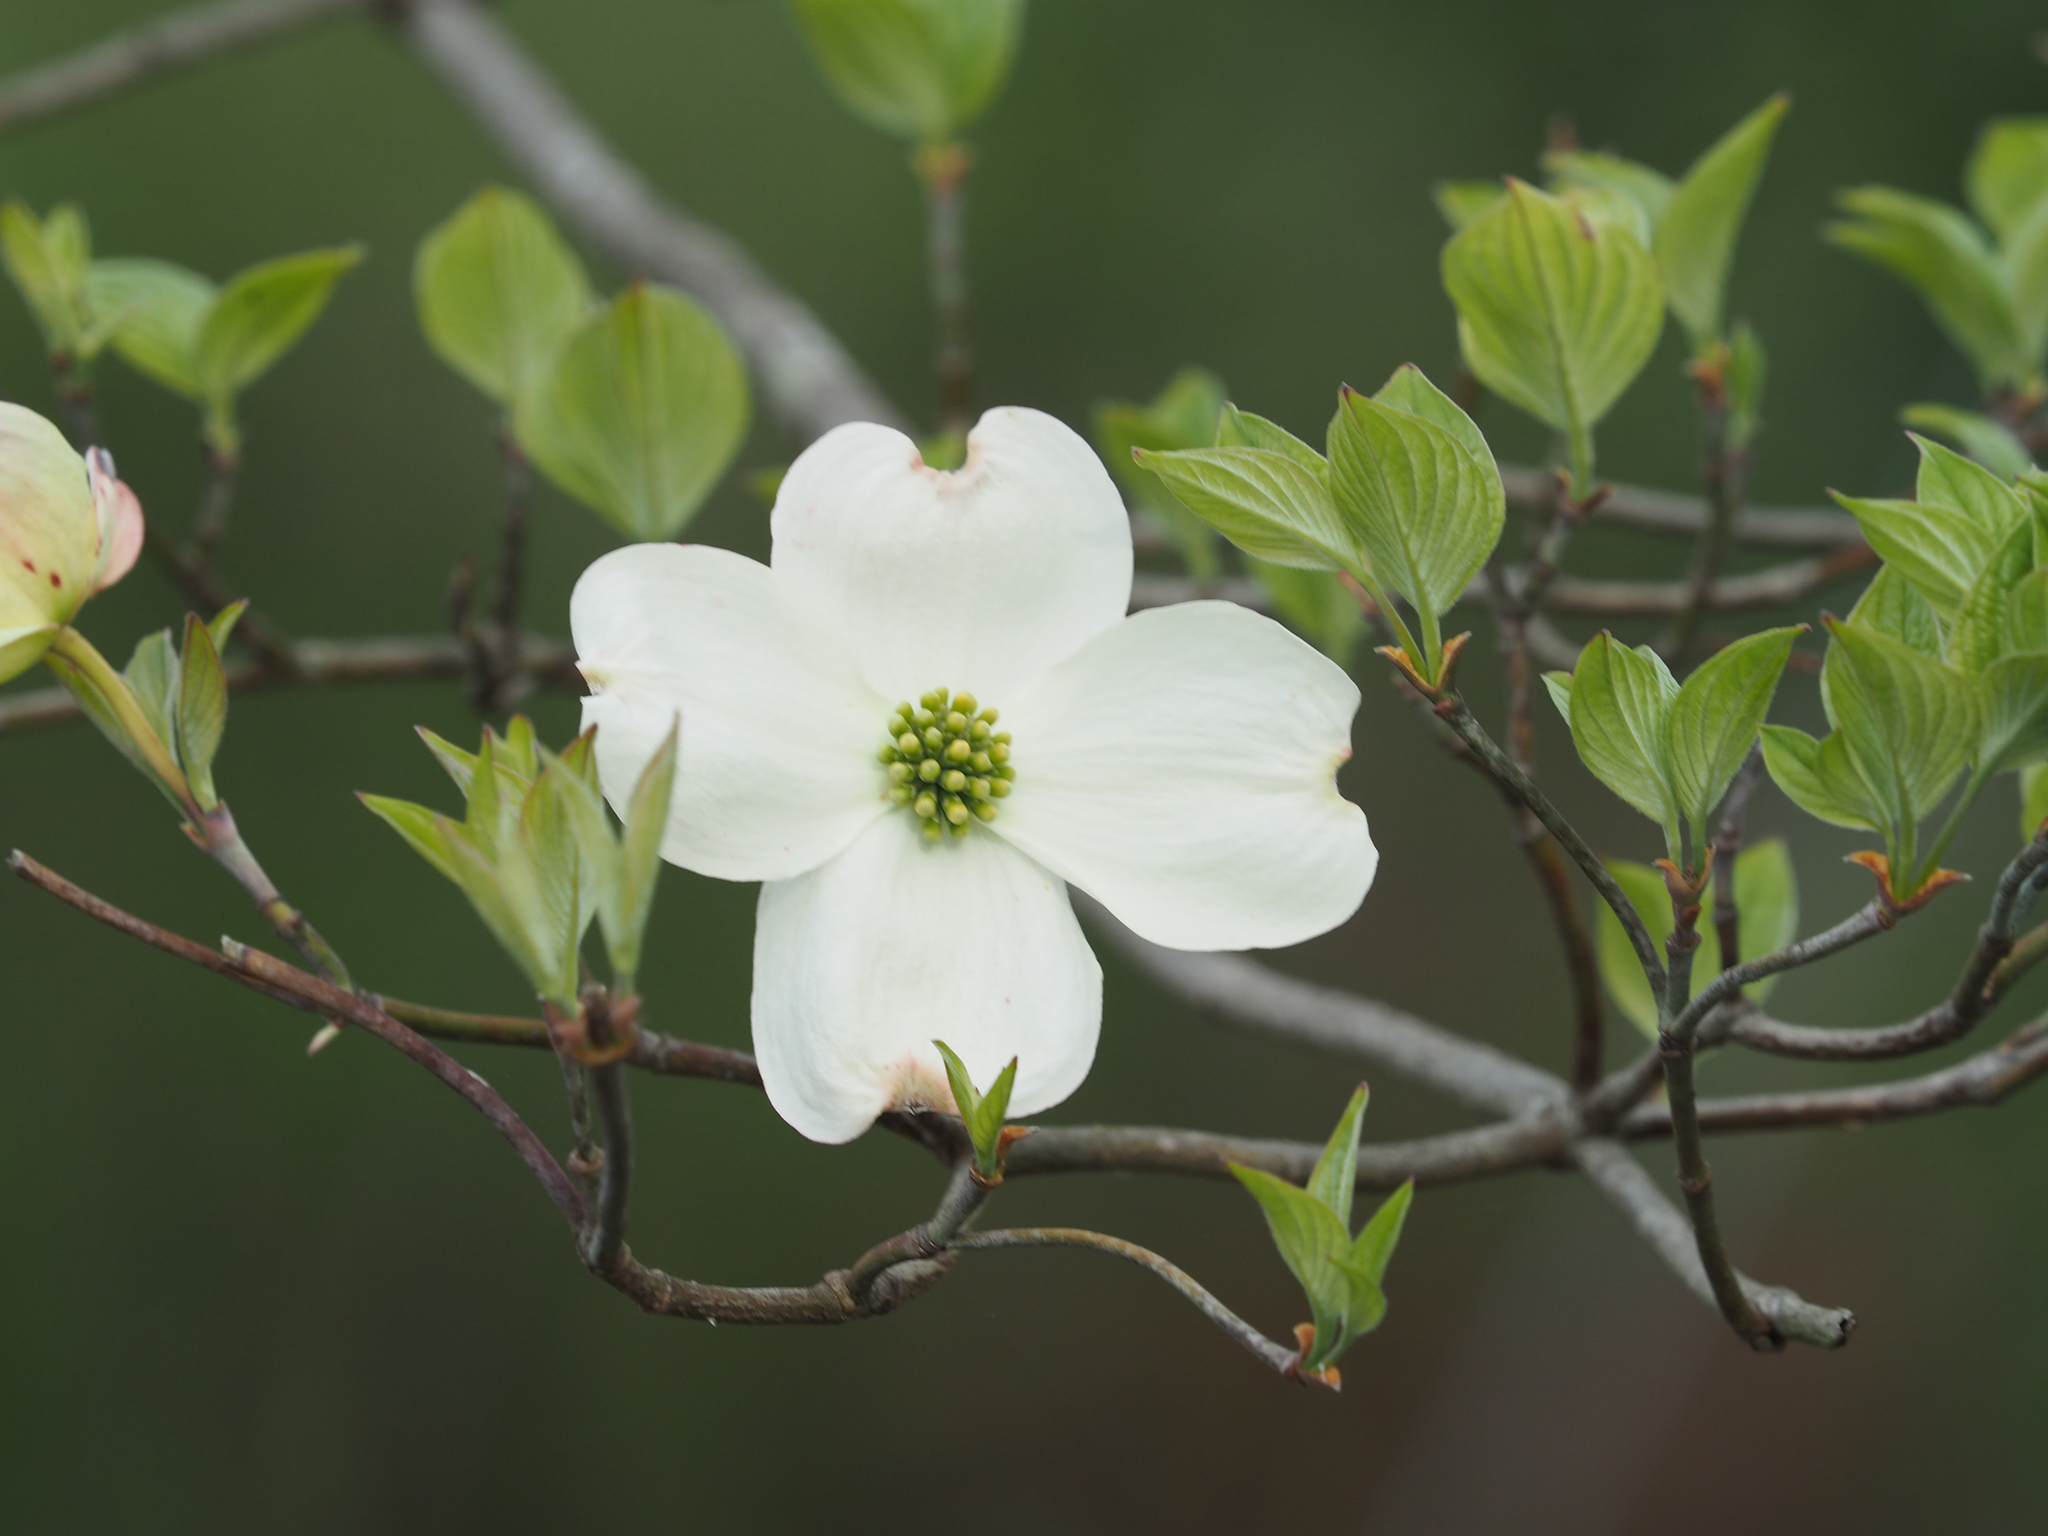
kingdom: Plantae
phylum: Tracheophyta
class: Magnoliopsida
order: Cornales
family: Cornaceae
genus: Cornus
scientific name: Cornus florida
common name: Flowering dogwood
